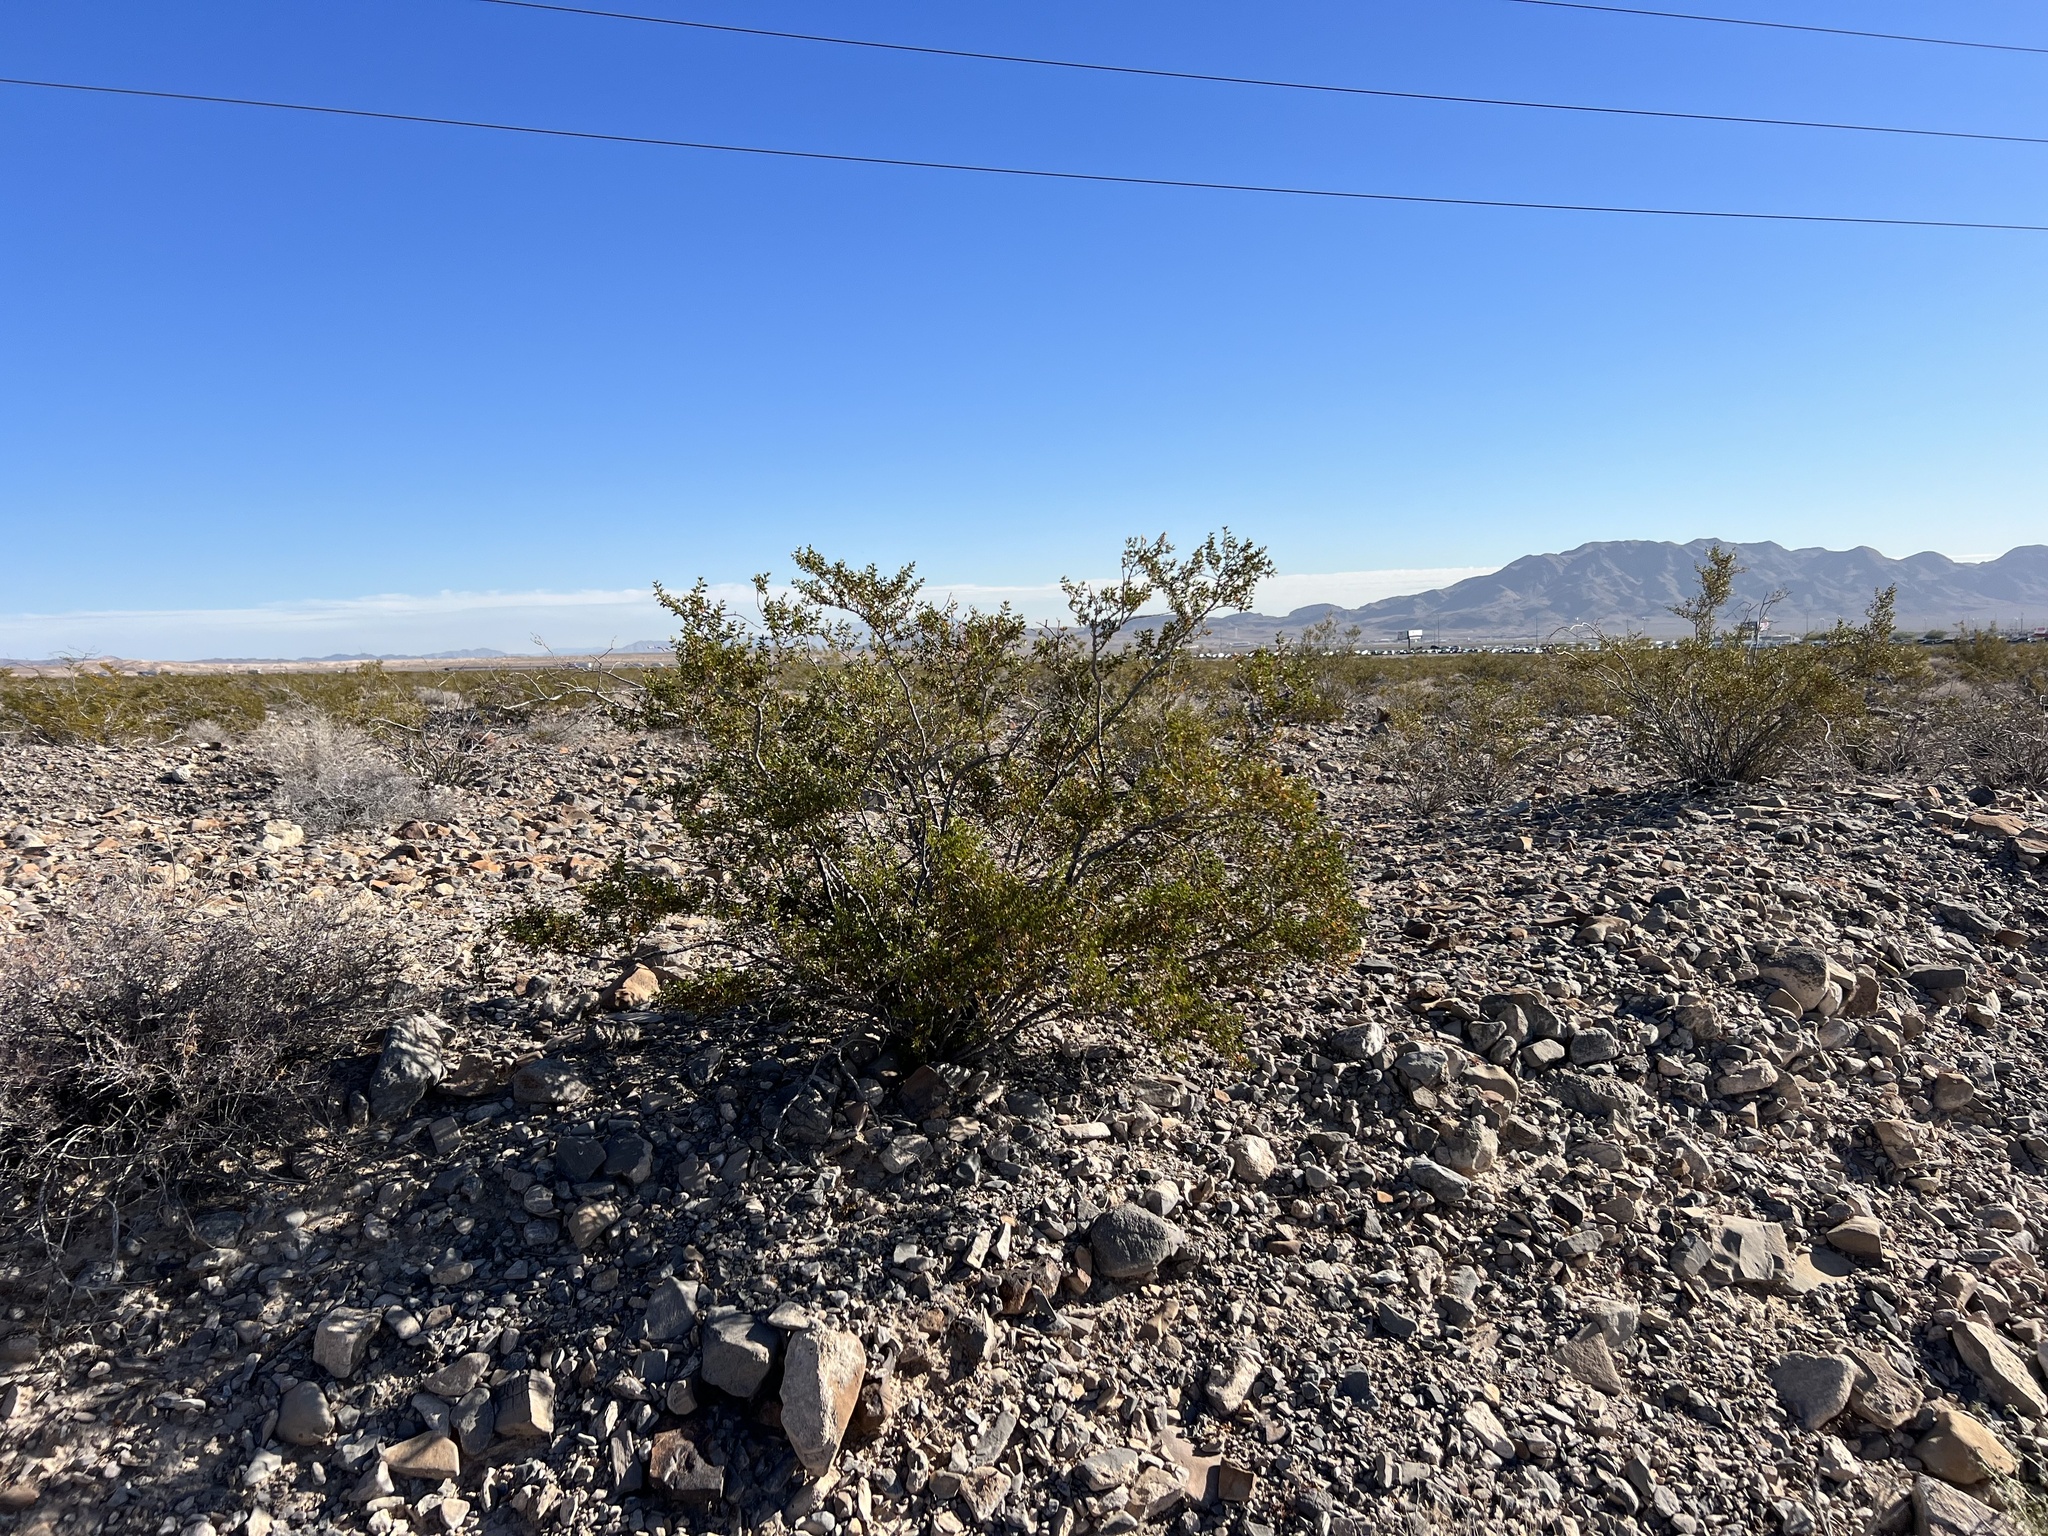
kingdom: Plantae
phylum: Tracheophyta
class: Magnoliopsida
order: Zygophyllales
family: Zygophyllaceae
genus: Larrea
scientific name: Larrea tridentata
